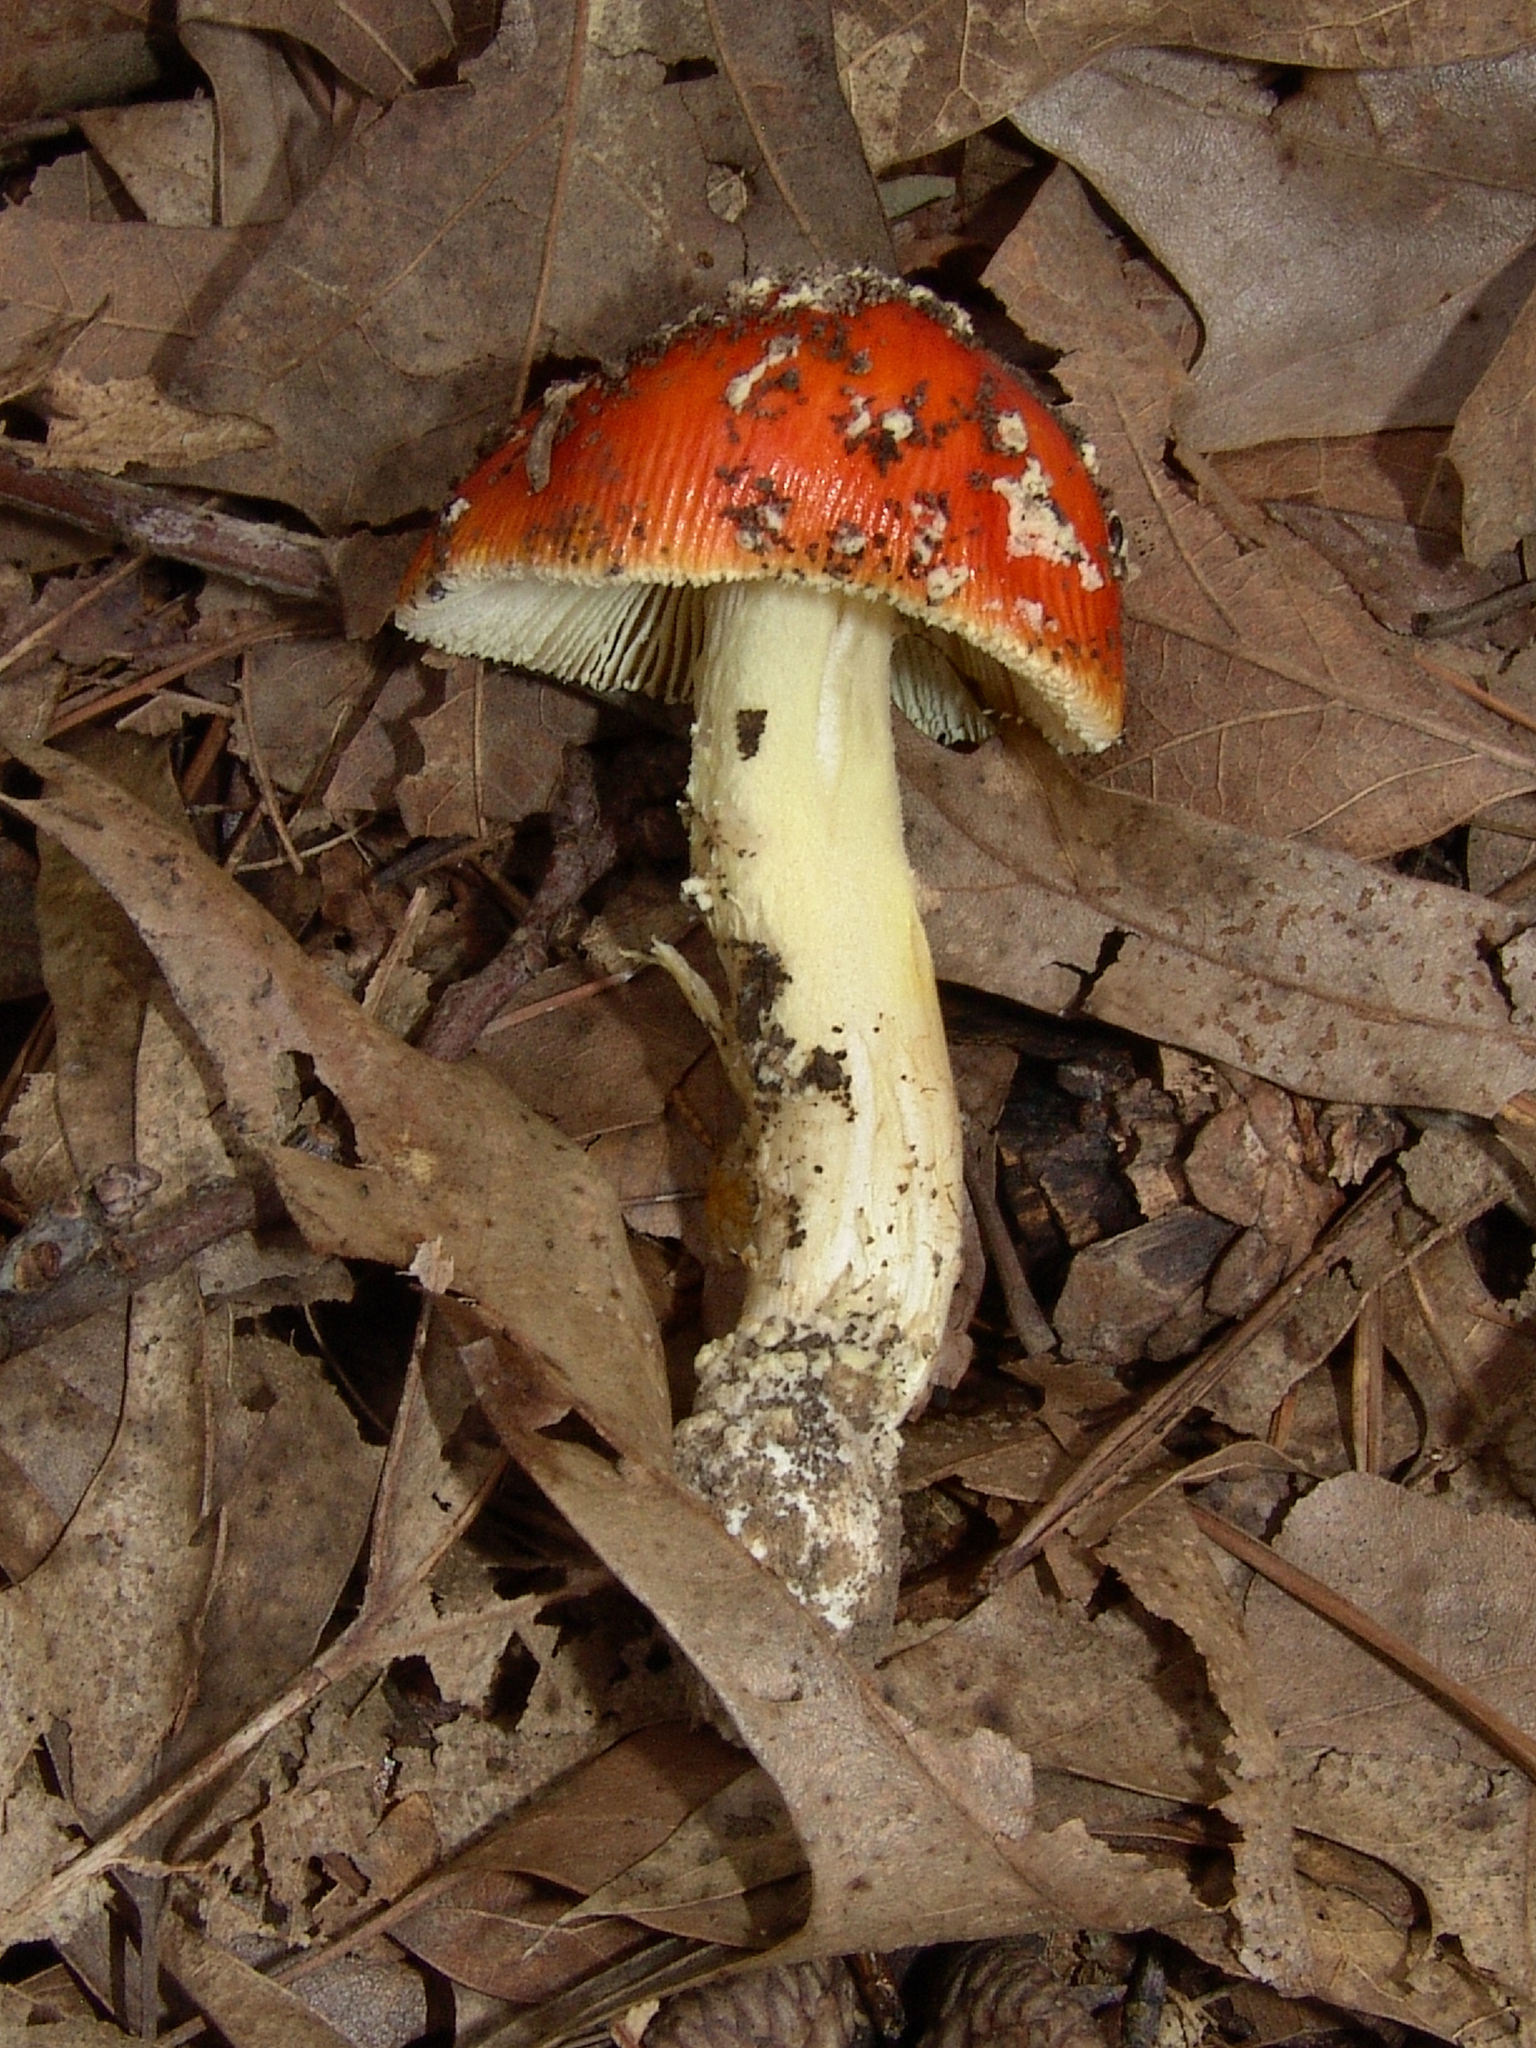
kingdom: Fungi
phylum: Basidiomycota
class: Agaricomycetes
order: Agaricales
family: Amanitaceae
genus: Amanita
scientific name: Amanita parcivolvata
